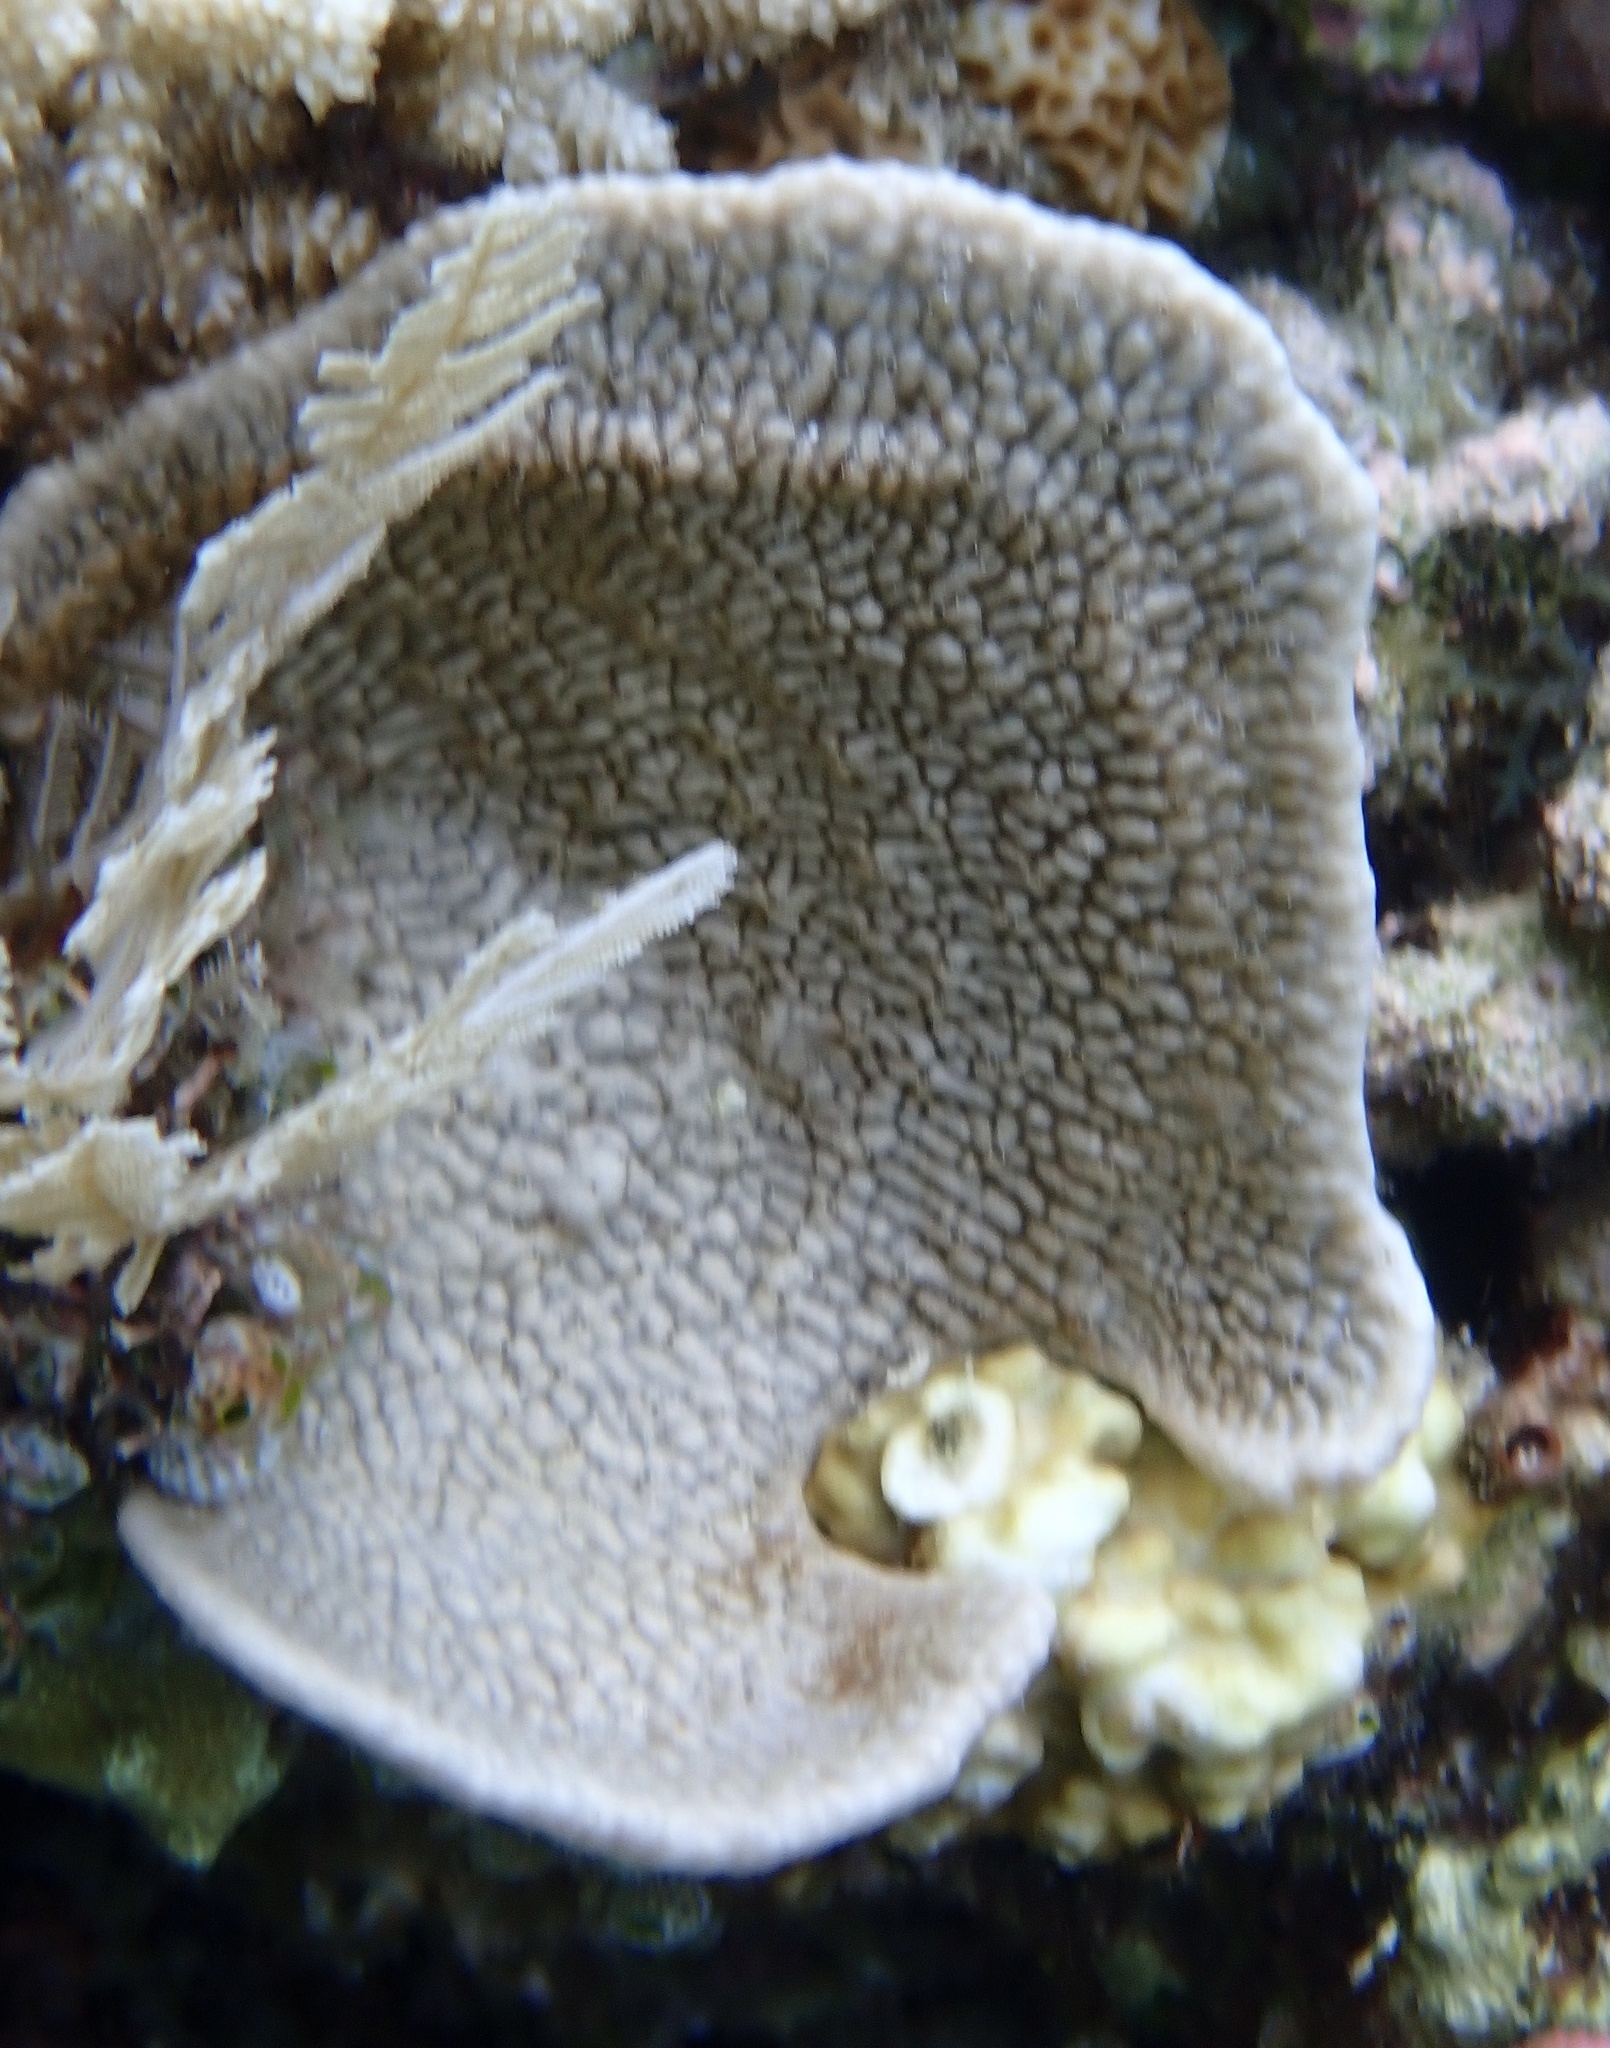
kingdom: Animalia
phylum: Porifera
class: Demospongiae
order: Dictyoceratida
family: Thorectidae
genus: Phyllospongia
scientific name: Phyllospongia foliascens
